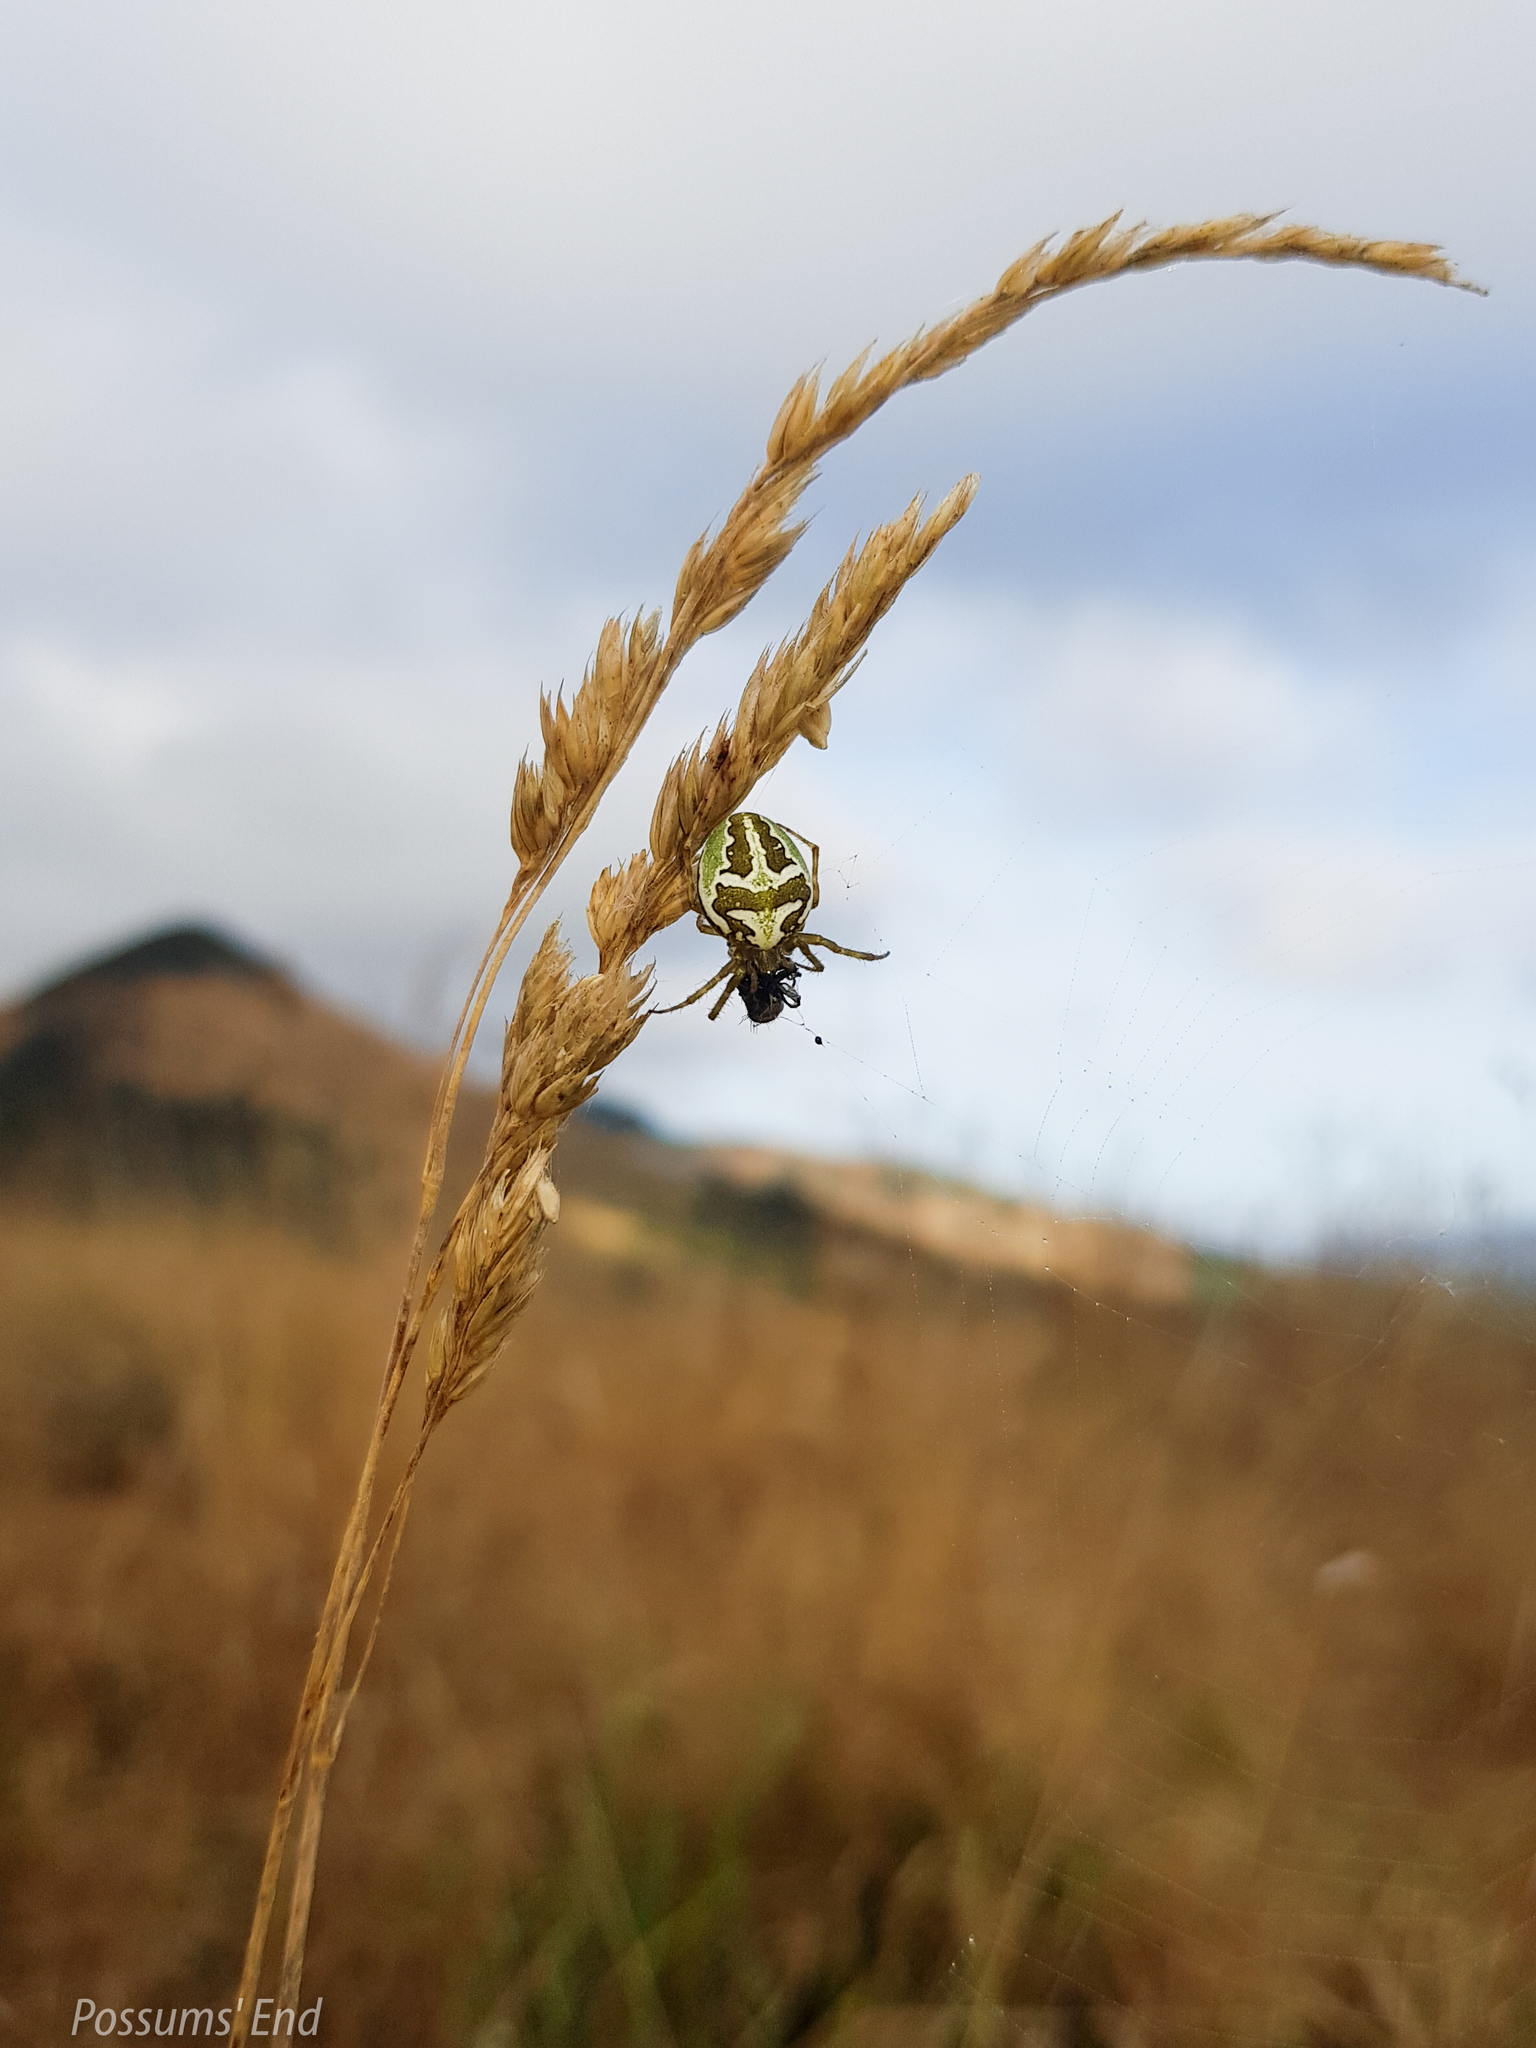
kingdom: Animalia
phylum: Arthropoda
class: Arachnida
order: Araneae
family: Araneidae
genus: Colaranea
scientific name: Colaranea verutum
